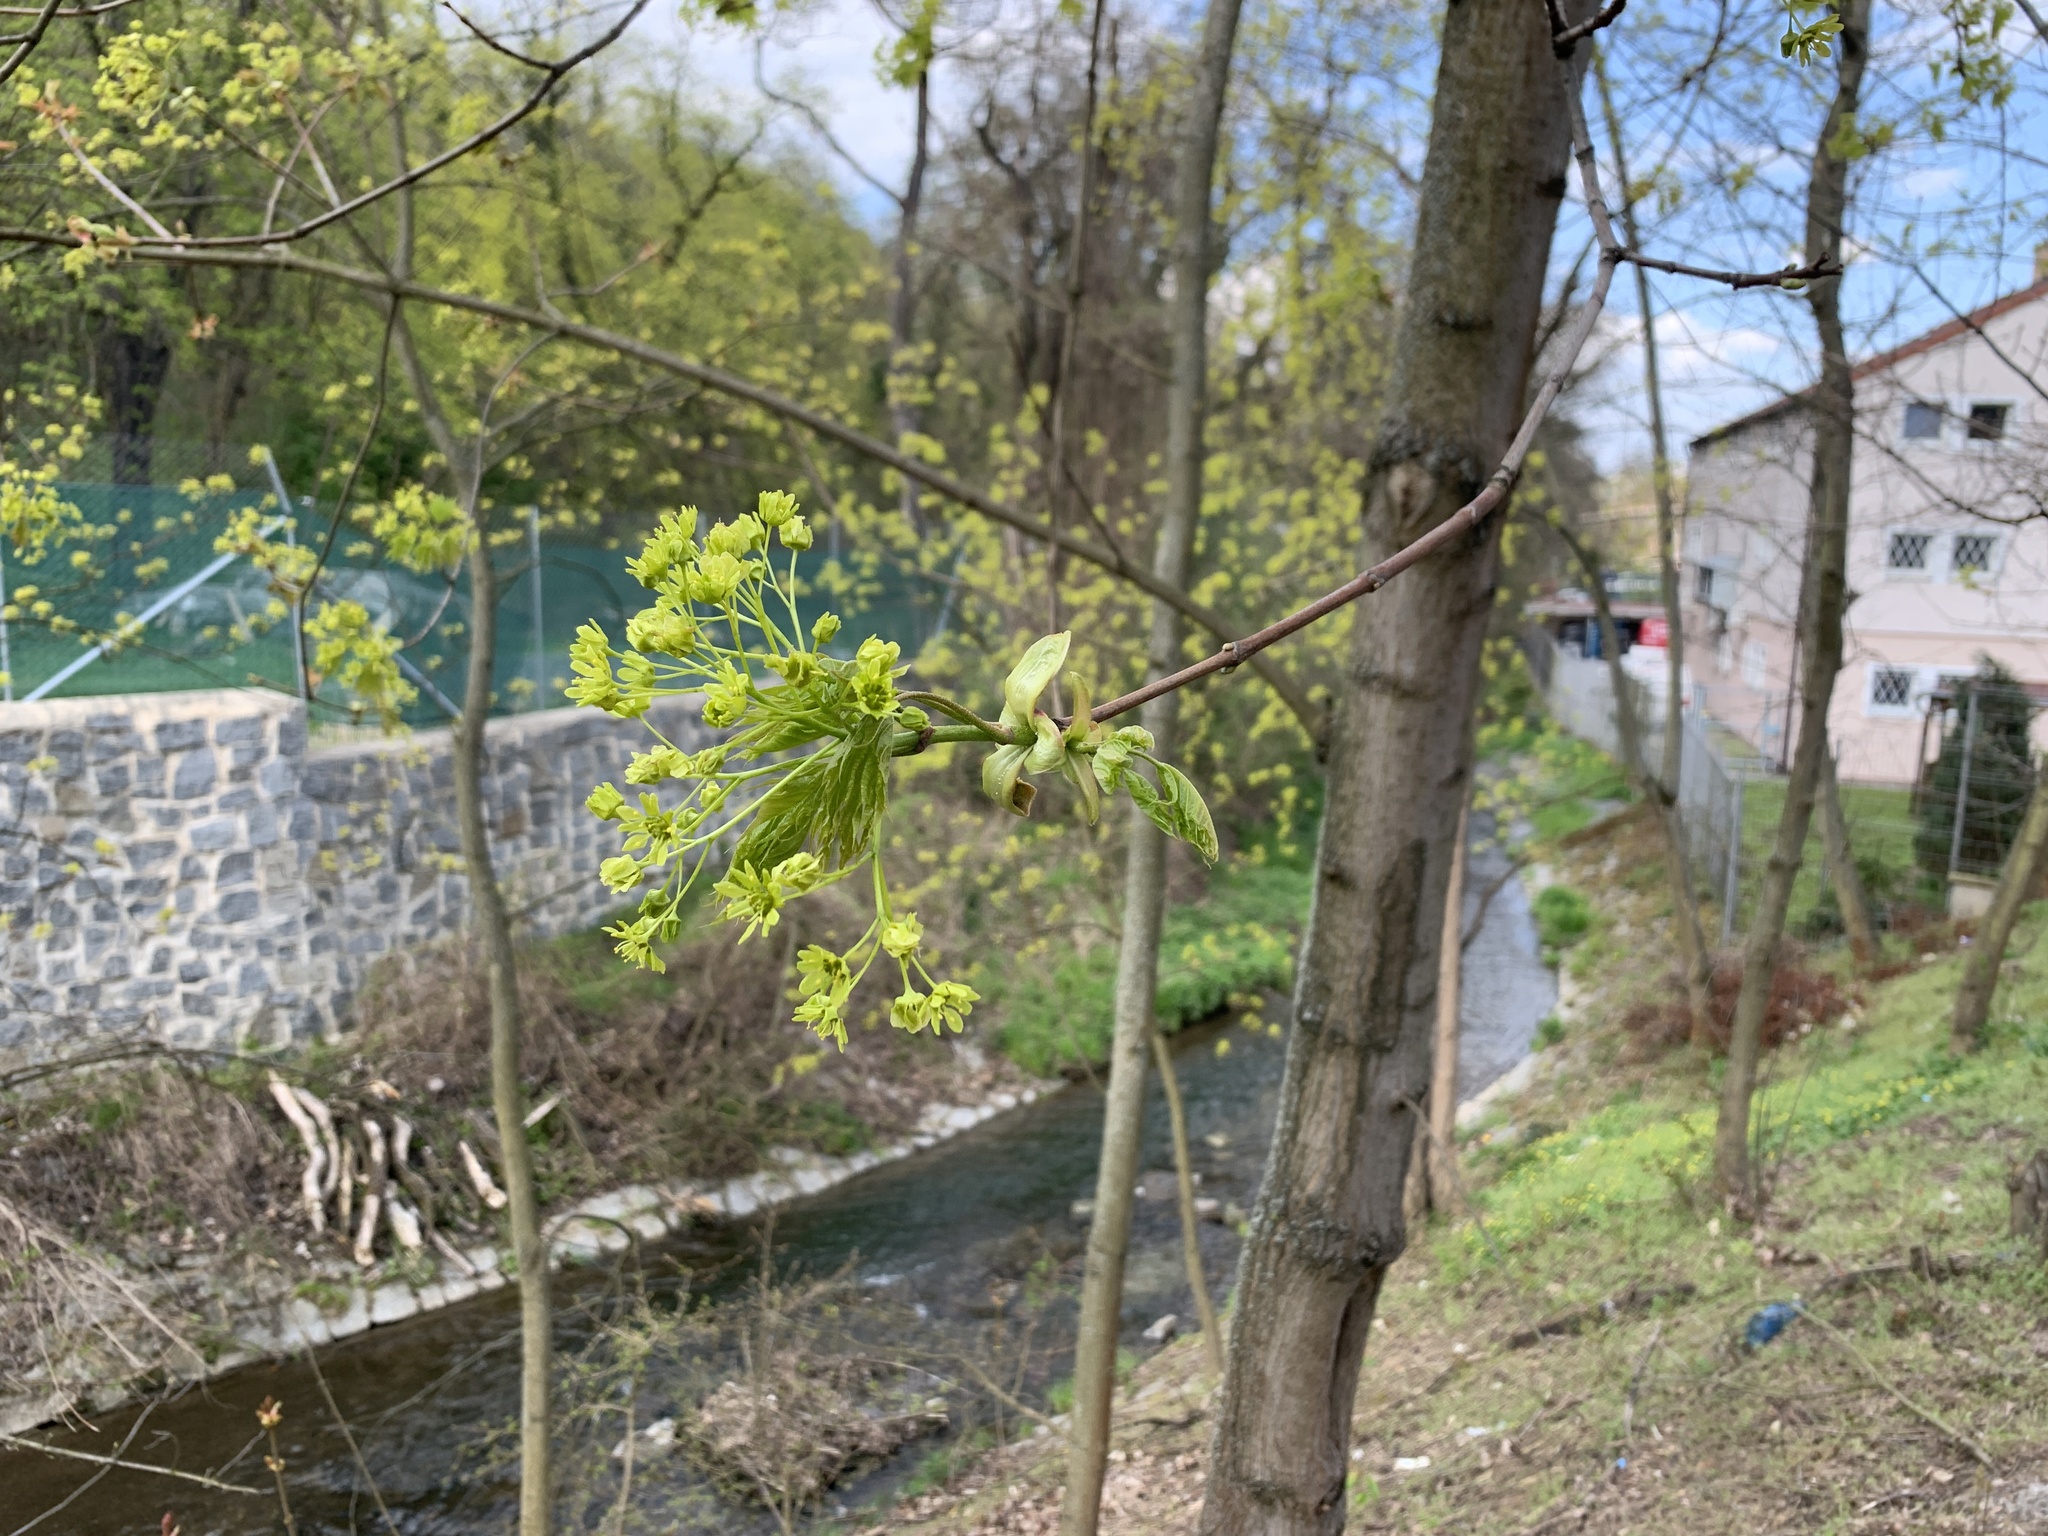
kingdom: Plantae
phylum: Tracheophyta
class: Magnoliopsida
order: Sapindales
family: Sapindaceae
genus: Acer
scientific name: Acer platanoides
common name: Norway maple
